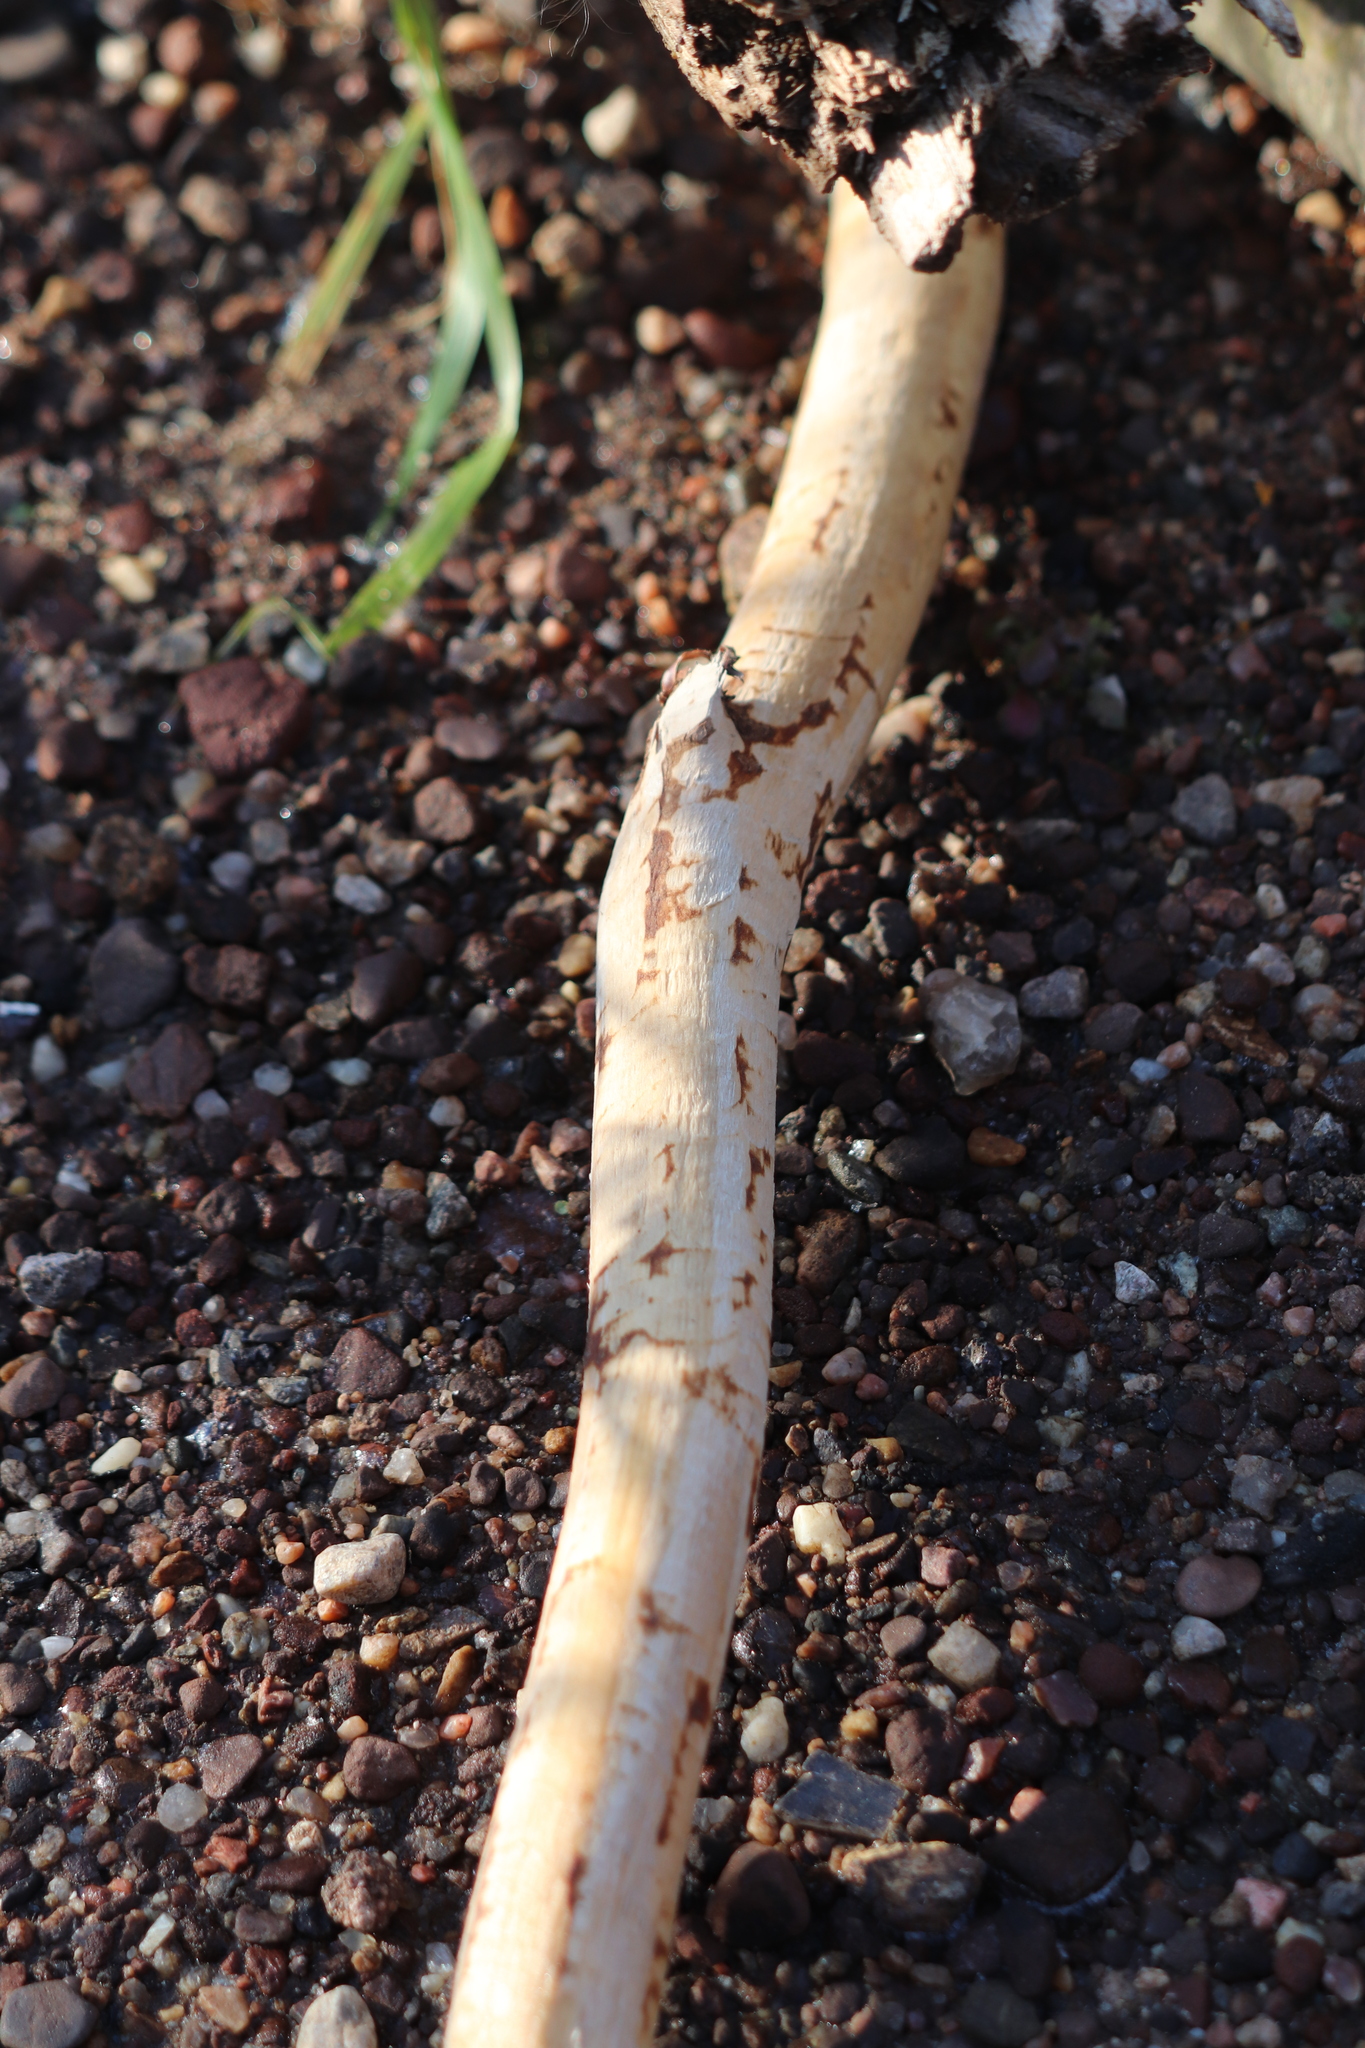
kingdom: Animalia
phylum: Chordata
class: Mammalia
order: Rodentia
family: Castoridae
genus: Castor
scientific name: Castor canadensis
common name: American beaver
